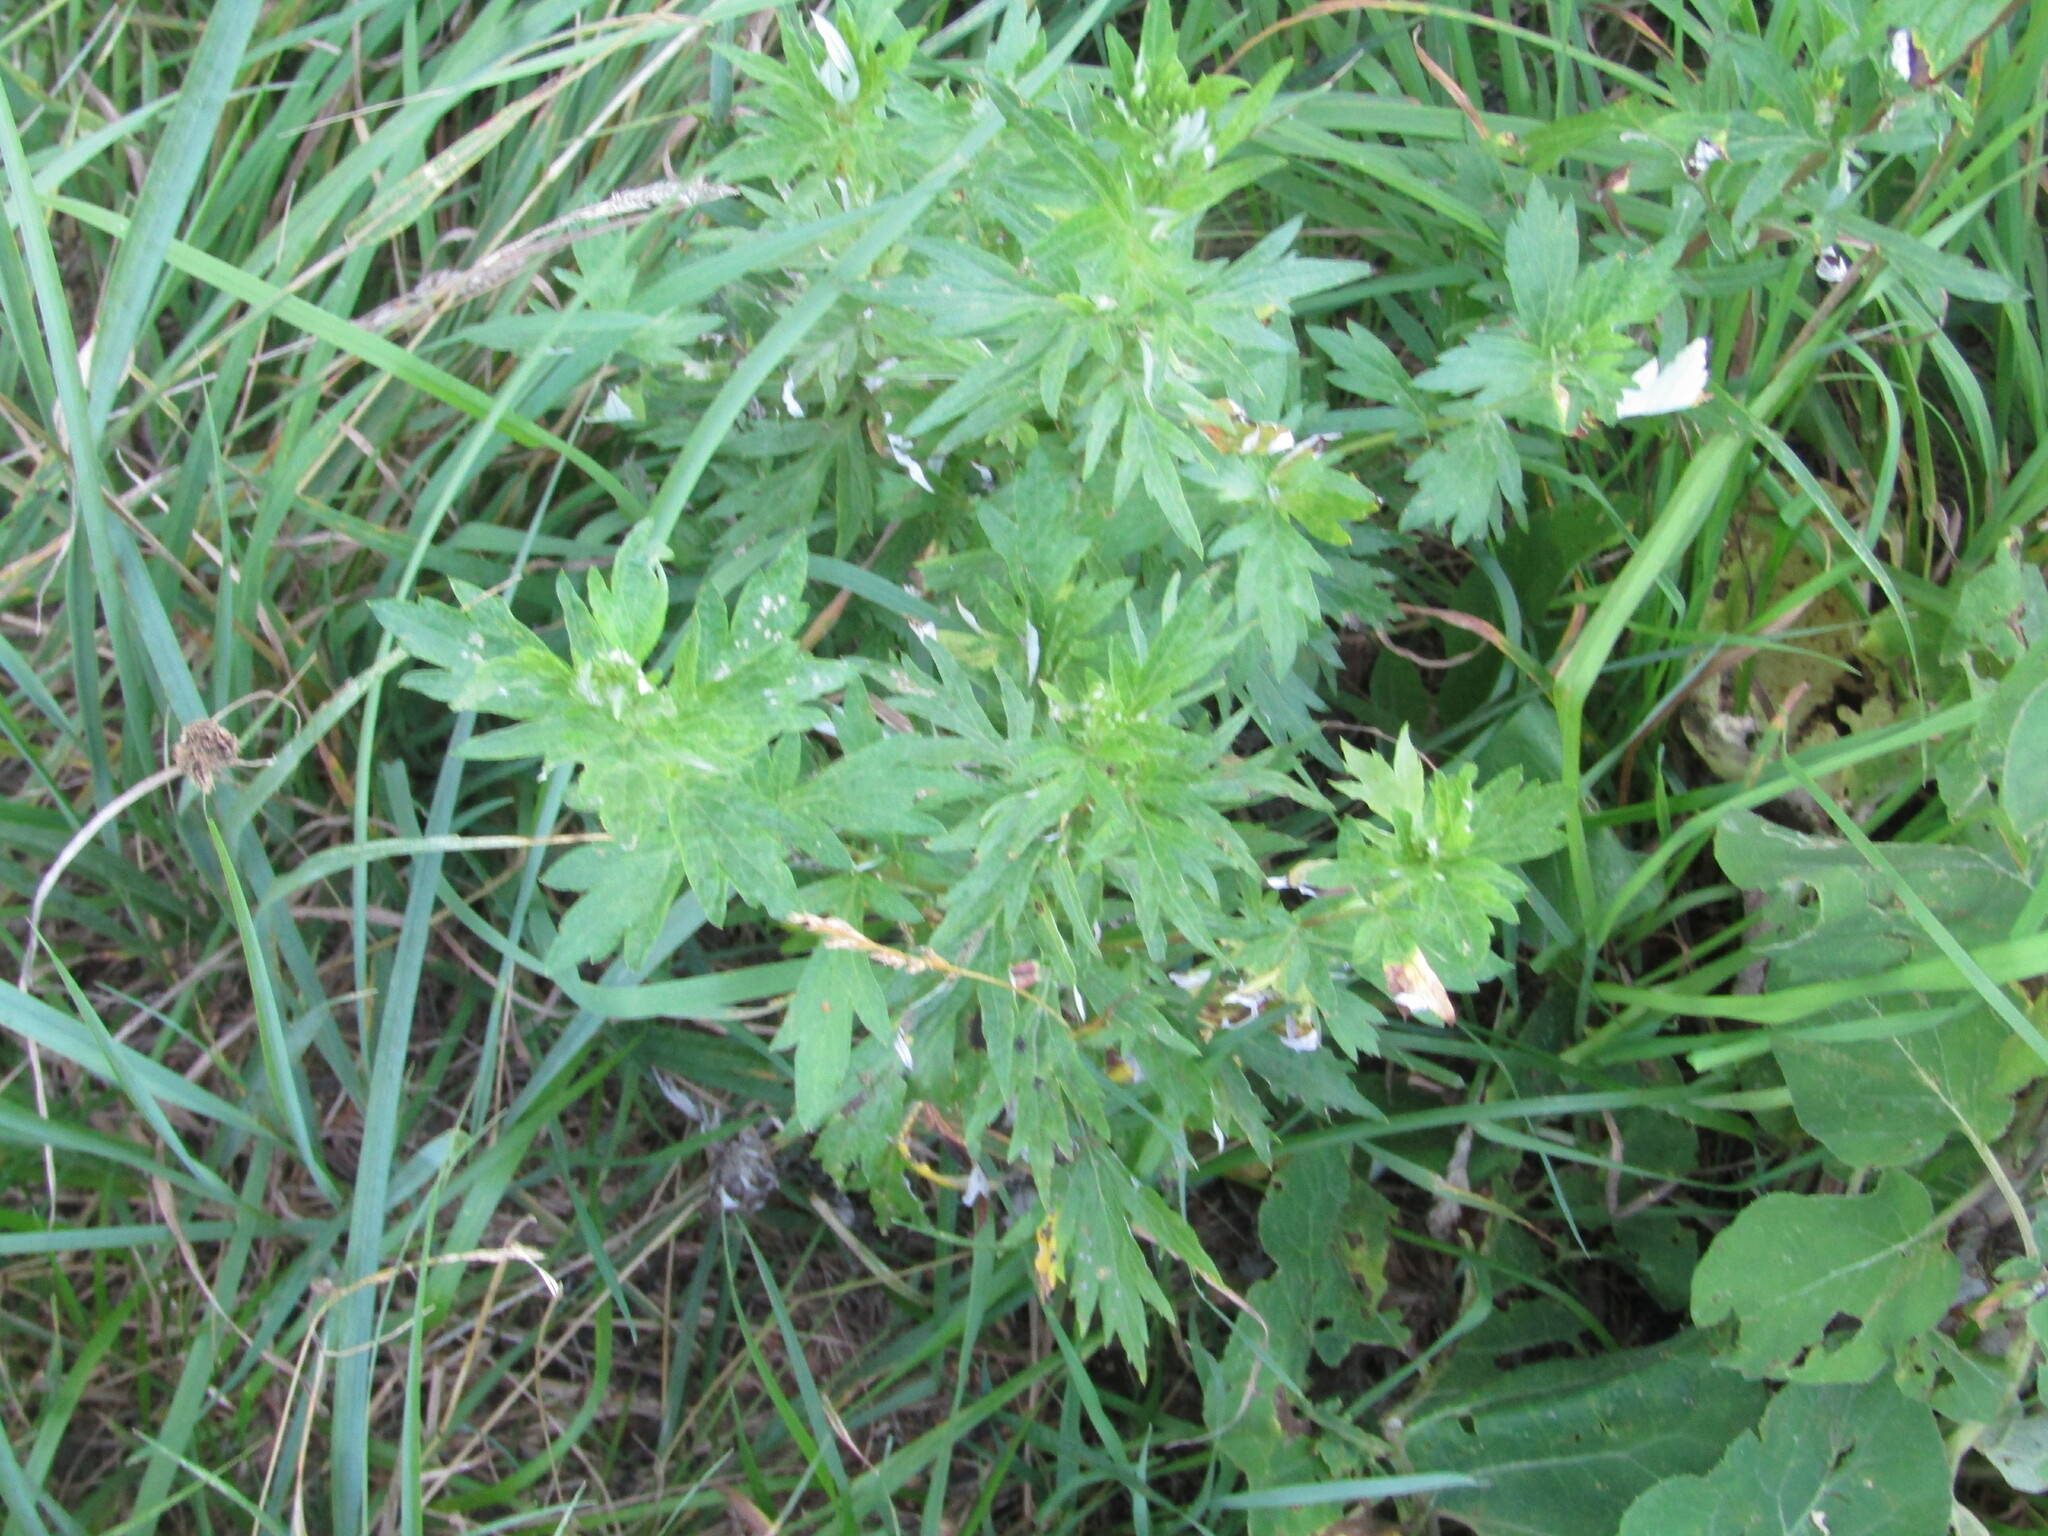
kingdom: Plantae
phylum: Tracheophyta
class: Magnoliopsida
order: Asterales
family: Asteraceae
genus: Artemisia
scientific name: Artemisia vulgaris
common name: Mugwort
